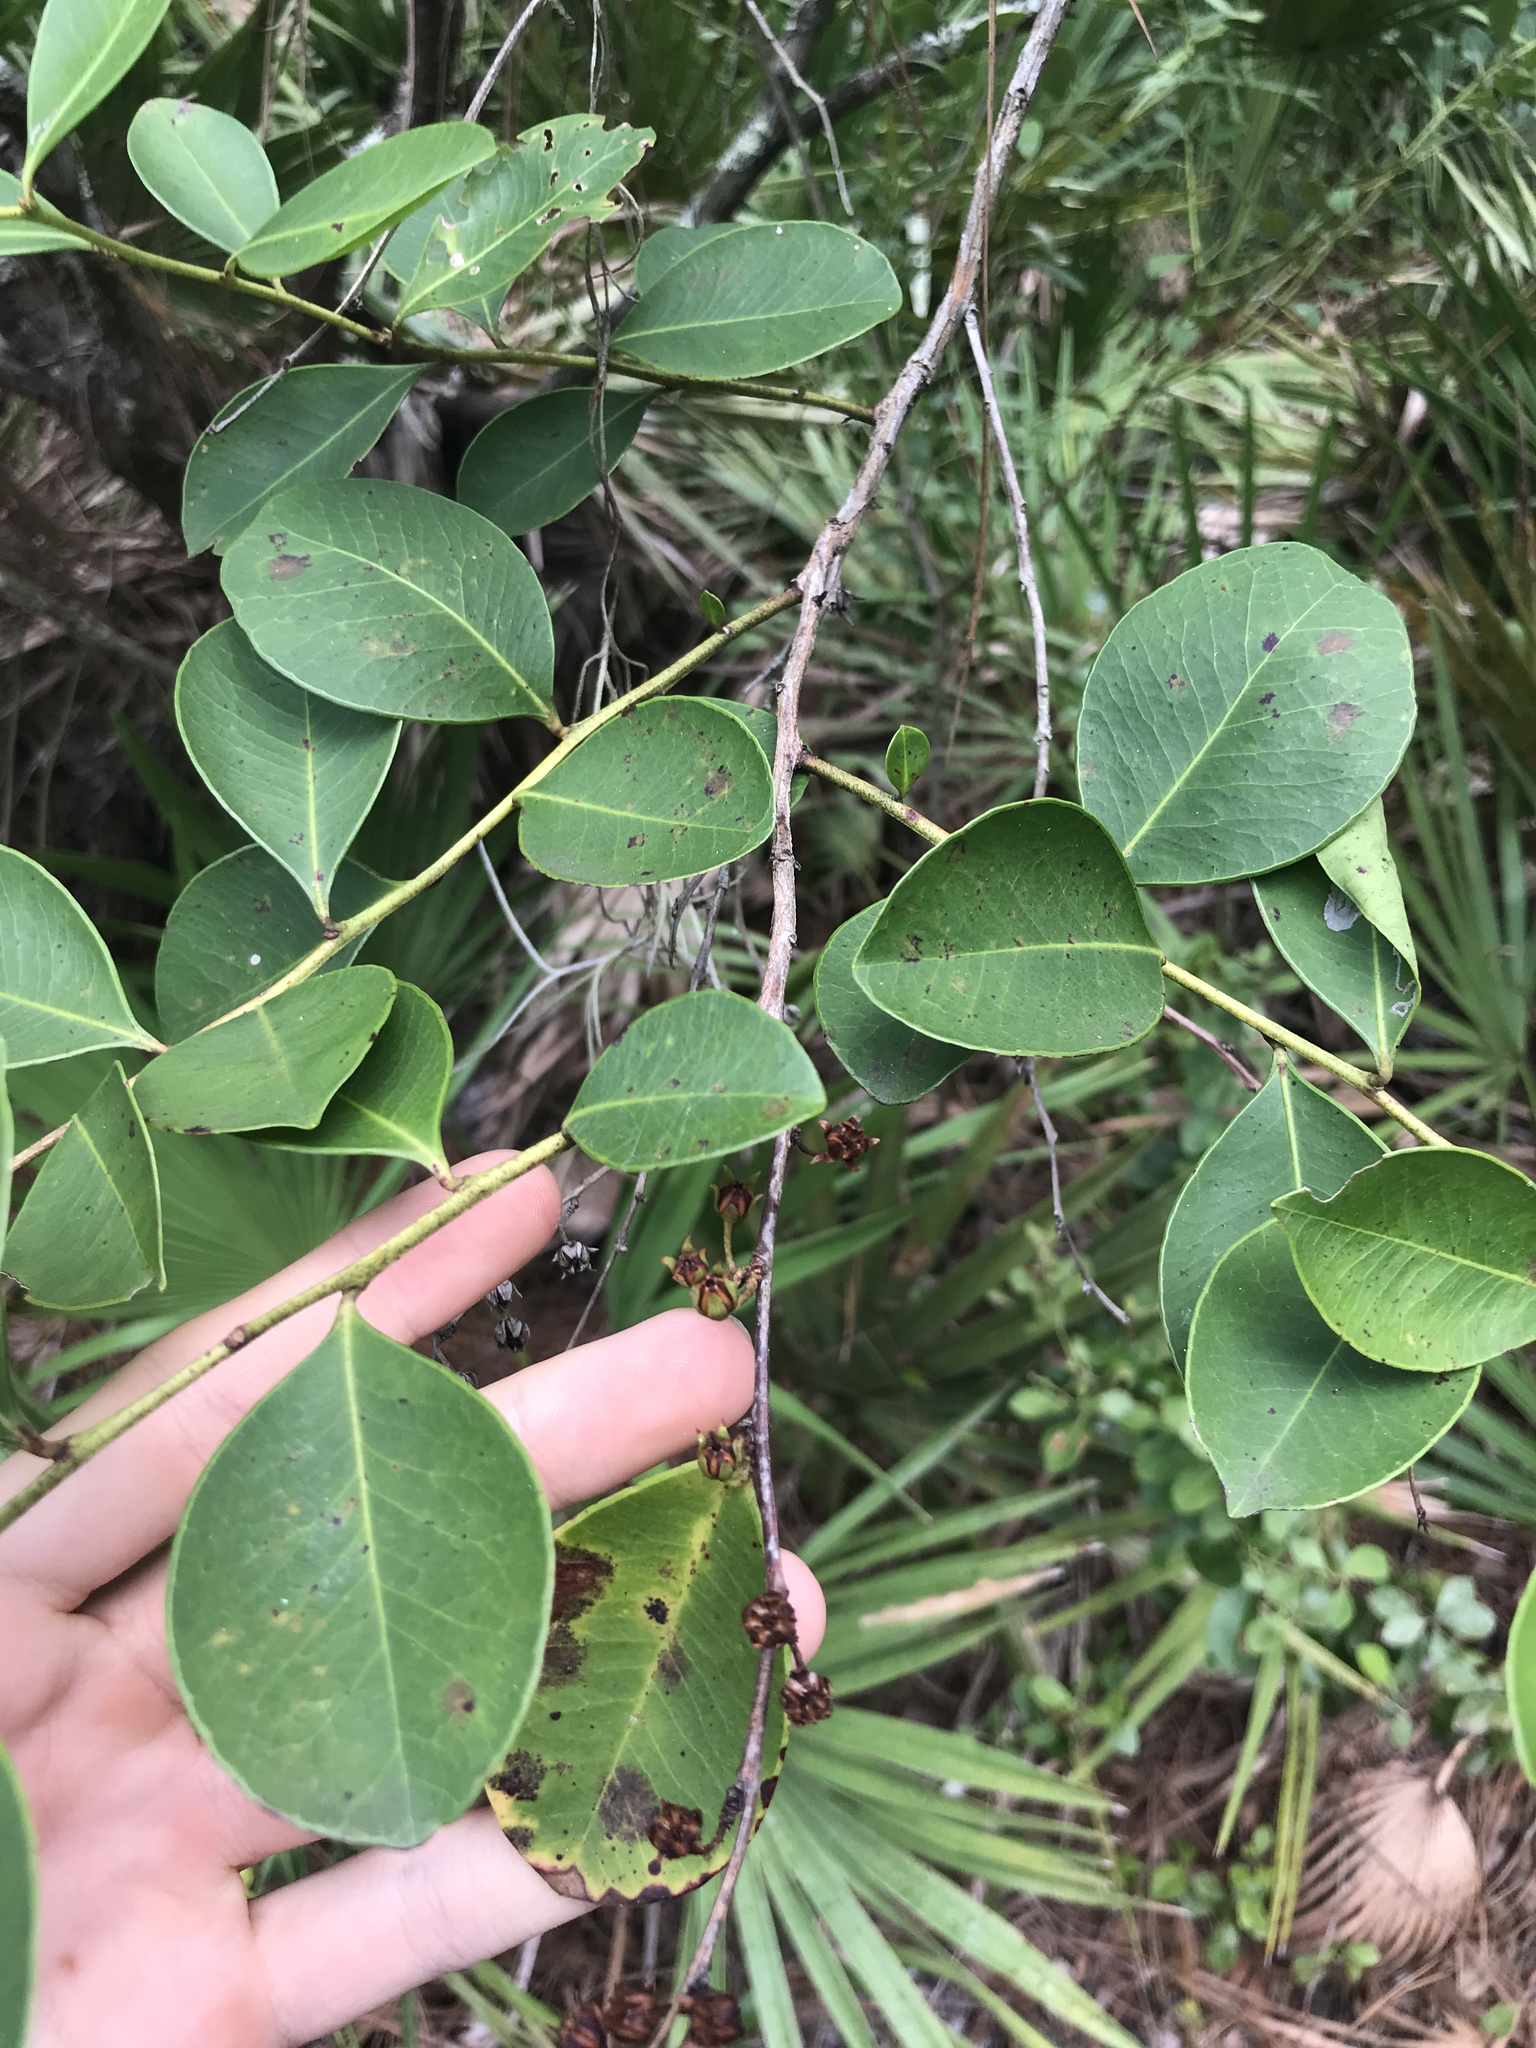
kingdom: Plantae
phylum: Tracheophyta
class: Magnoliopsida
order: Ericales
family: Ericaceae
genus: Lyonia
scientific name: Lyonia lucida
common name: Fetterbush
